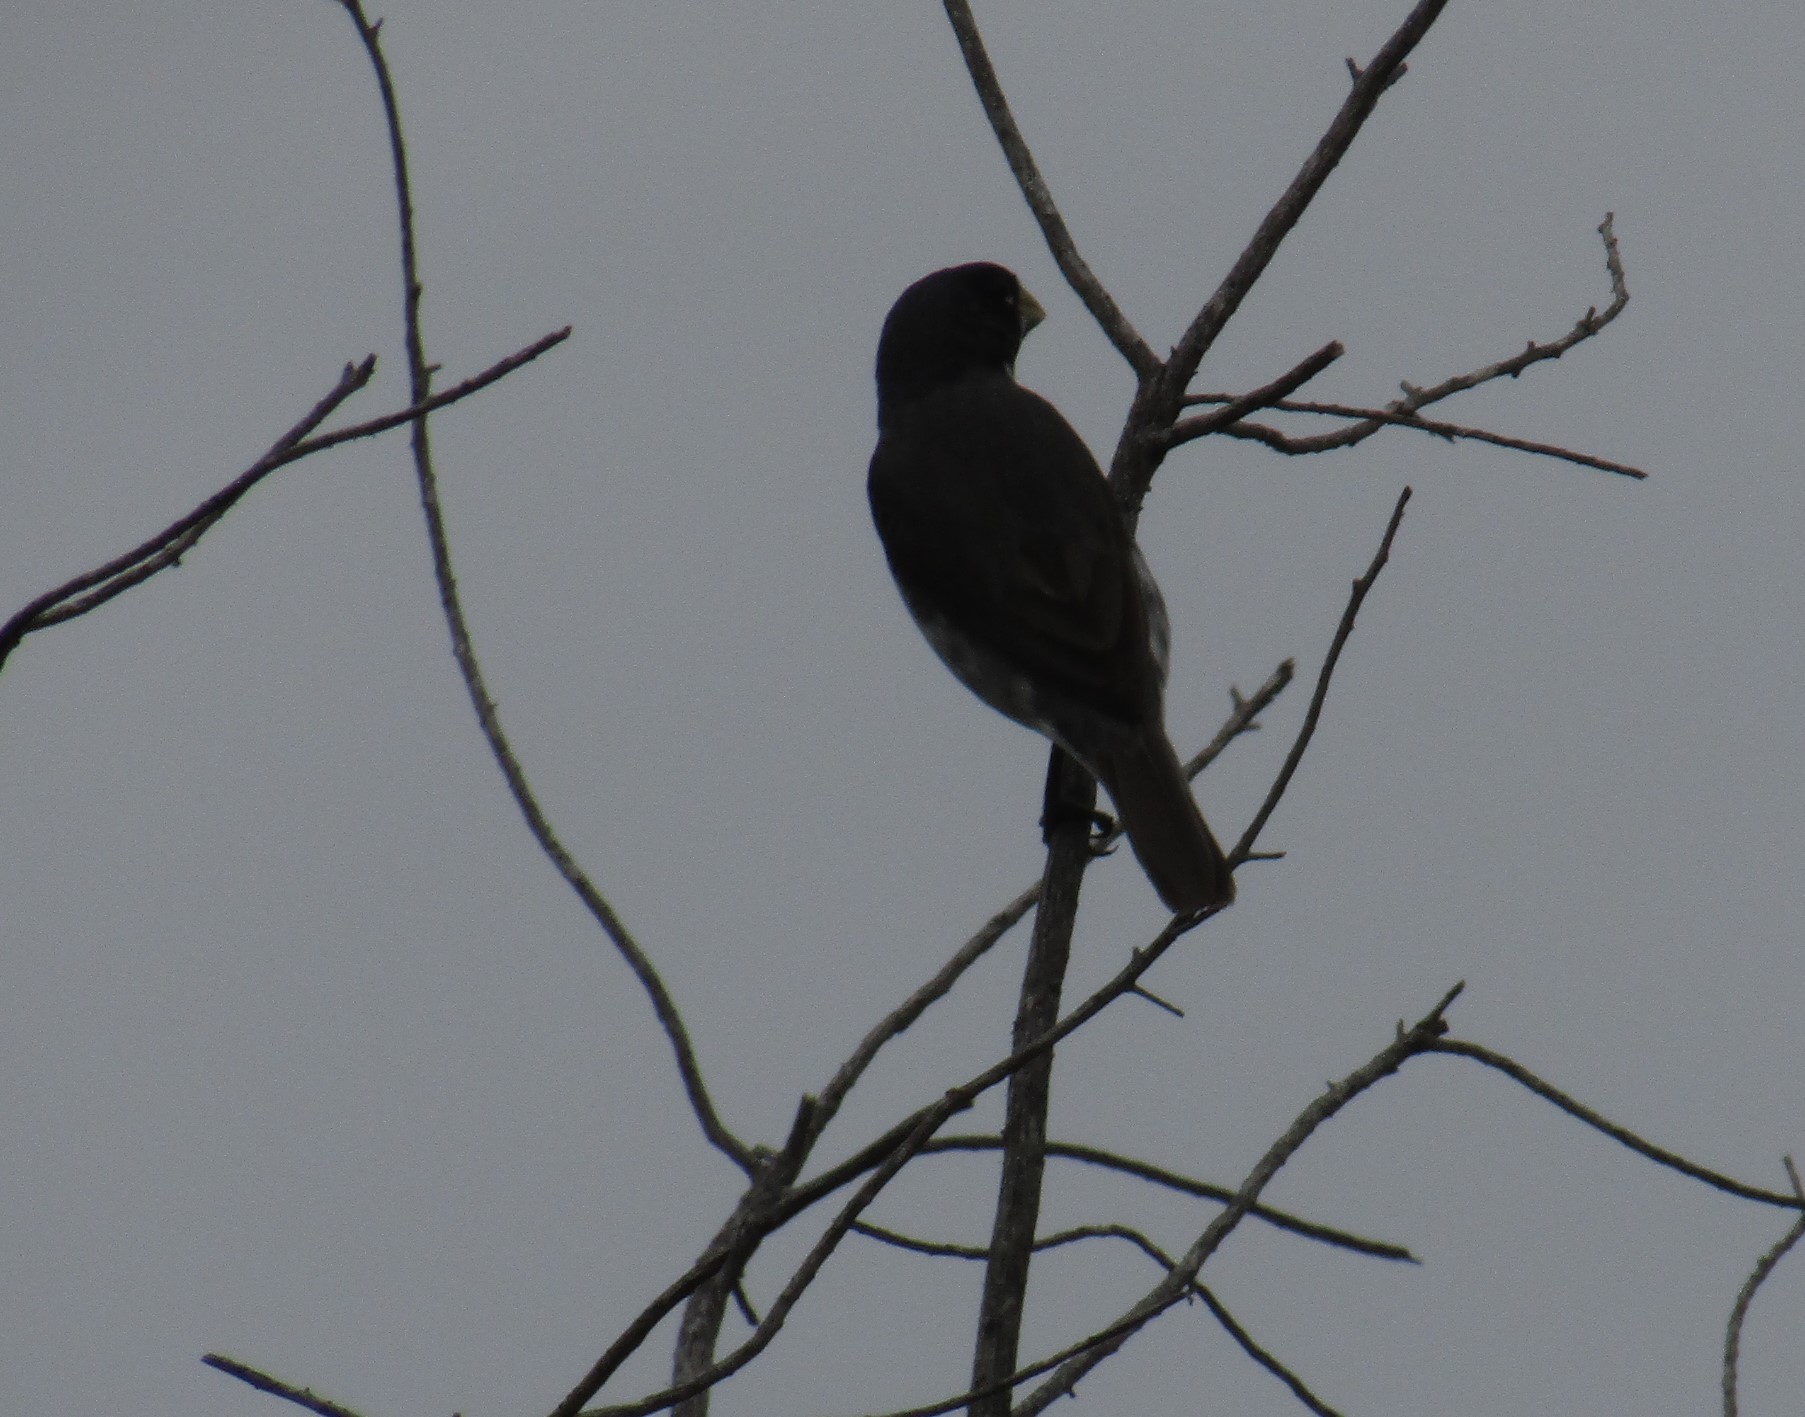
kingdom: Animalia
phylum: Chordata
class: Aves
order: Passeriformes
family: Thraupidae
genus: Sporophila
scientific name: Sporophila caerulescens
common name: Double-collared seedeater
